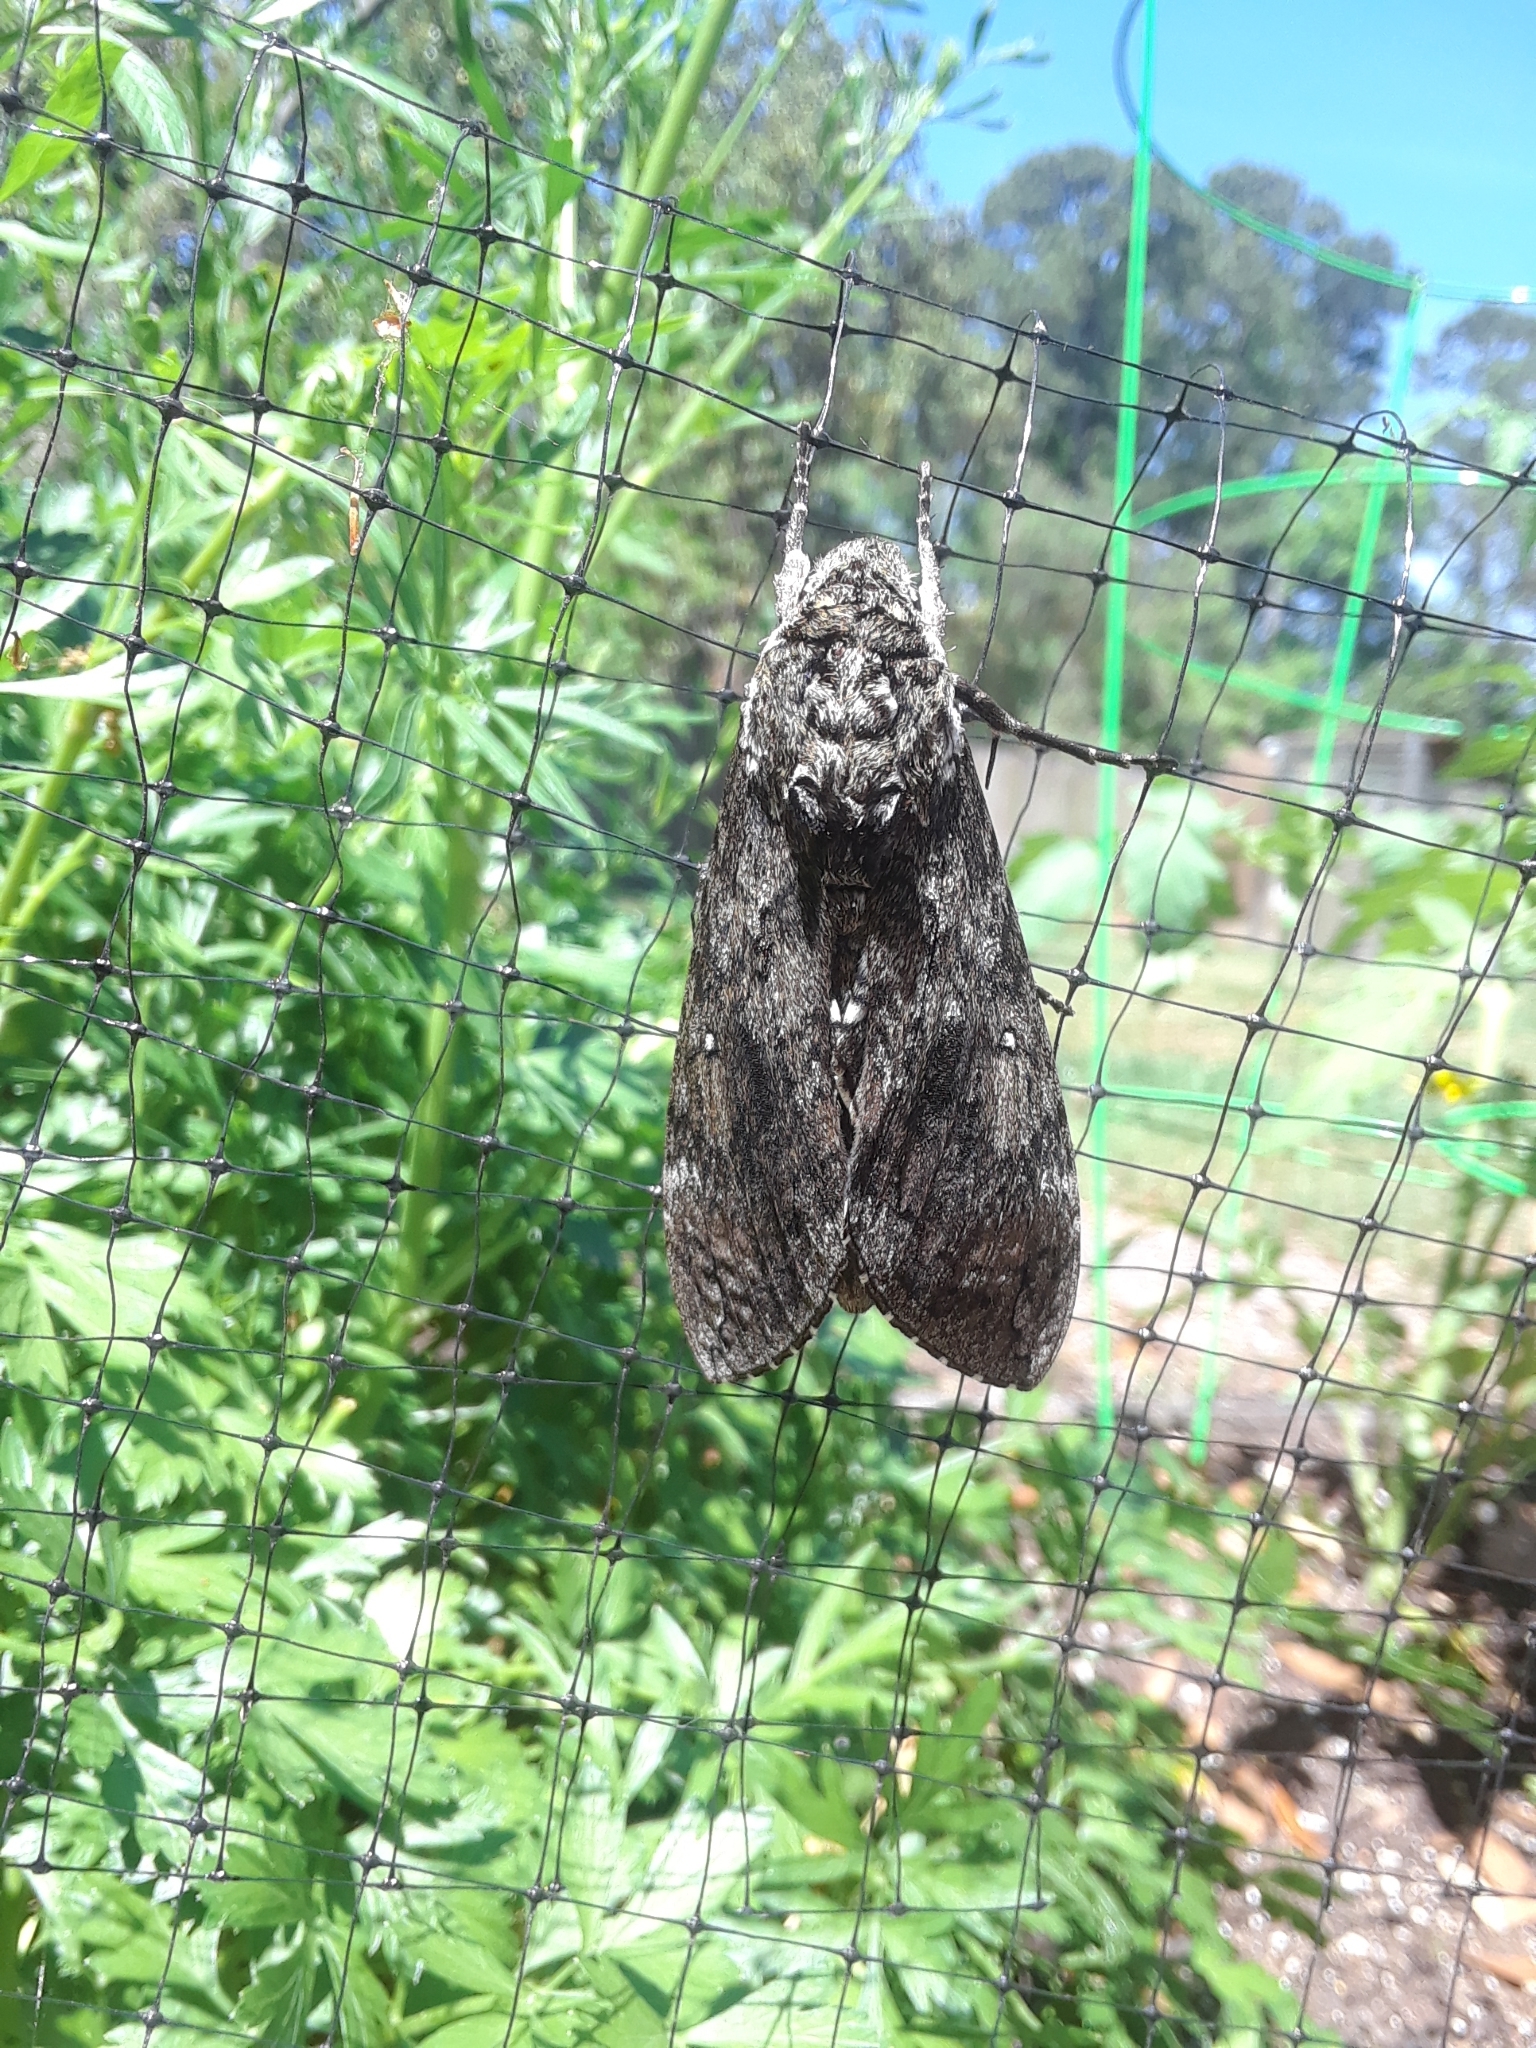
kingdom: Animalia
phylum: Arthropoda
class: Insecta
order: Lepidoptera
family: Sphingidae
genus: Manduca
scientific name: Manduca sexta
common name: Carolina sphinx
